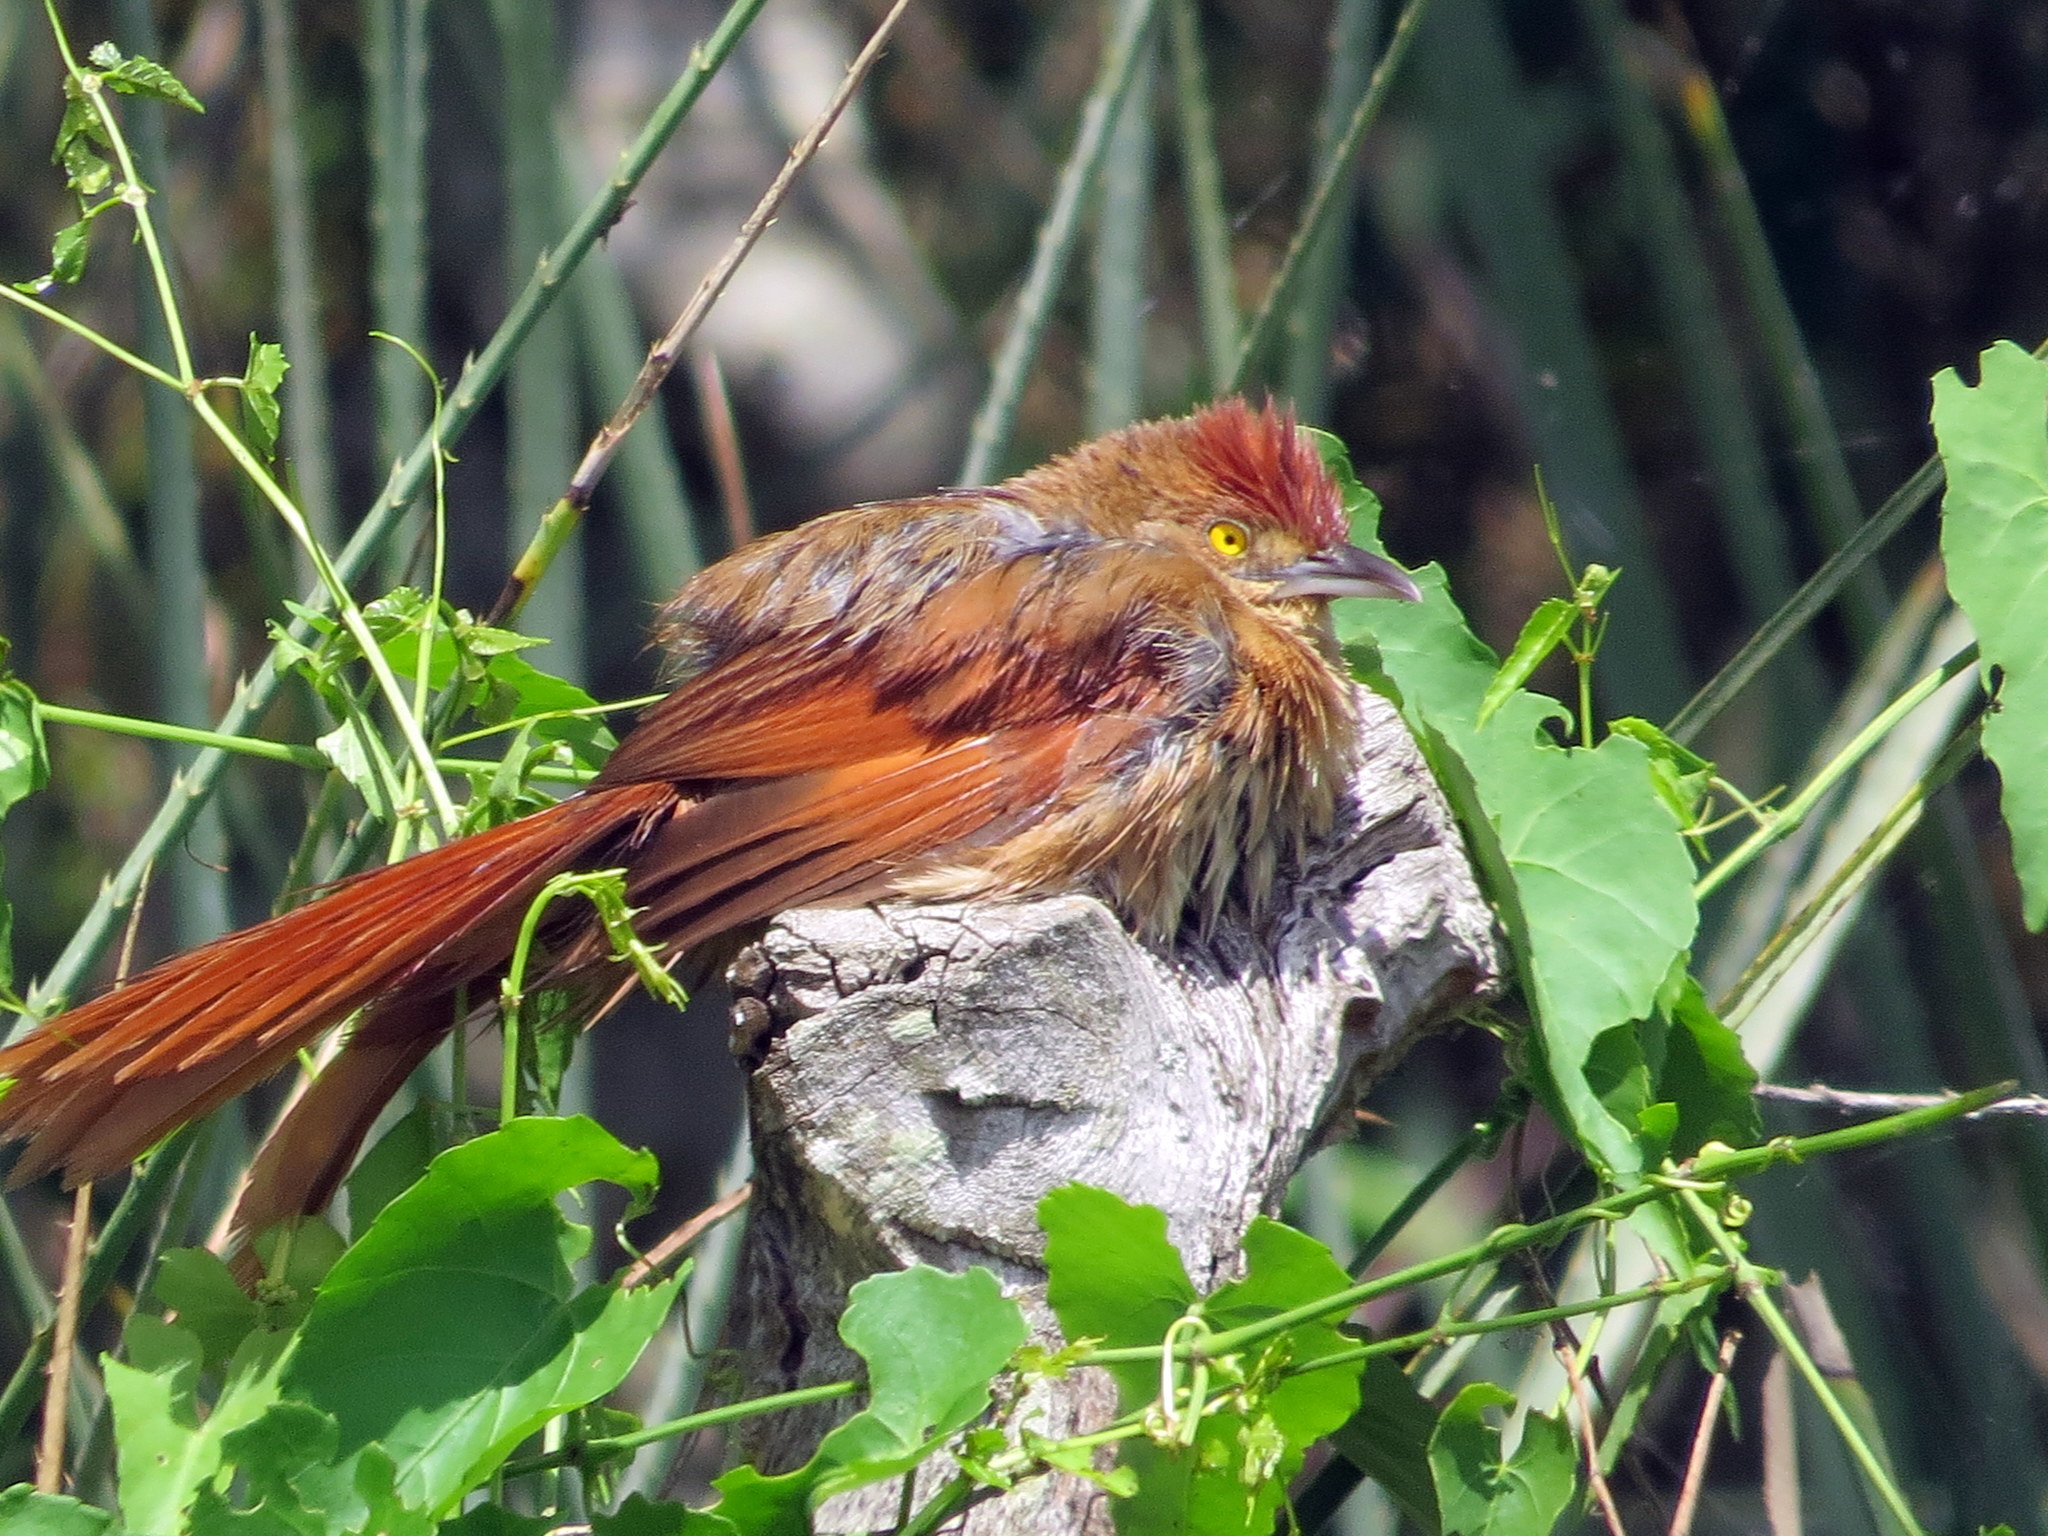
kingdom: Animalia
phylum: Chordata
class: Aves
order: Passeriformes
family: Furnariidae
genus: Phacellodomus
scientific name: Phacellodomus ruber
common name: Greater thornbird
